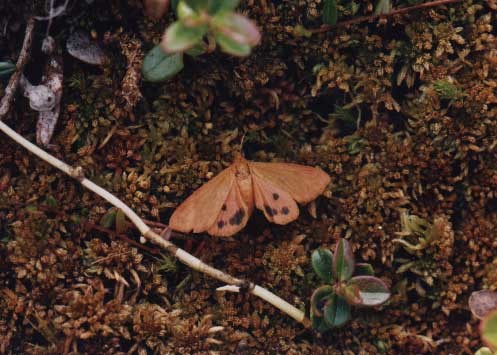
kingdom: Animalia
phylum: Arthropoda
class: Insecta
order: Lepidoptera
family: Erebidae
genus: Virbia
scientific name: Virbia ferruginosa
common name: Rusty virbia moth
